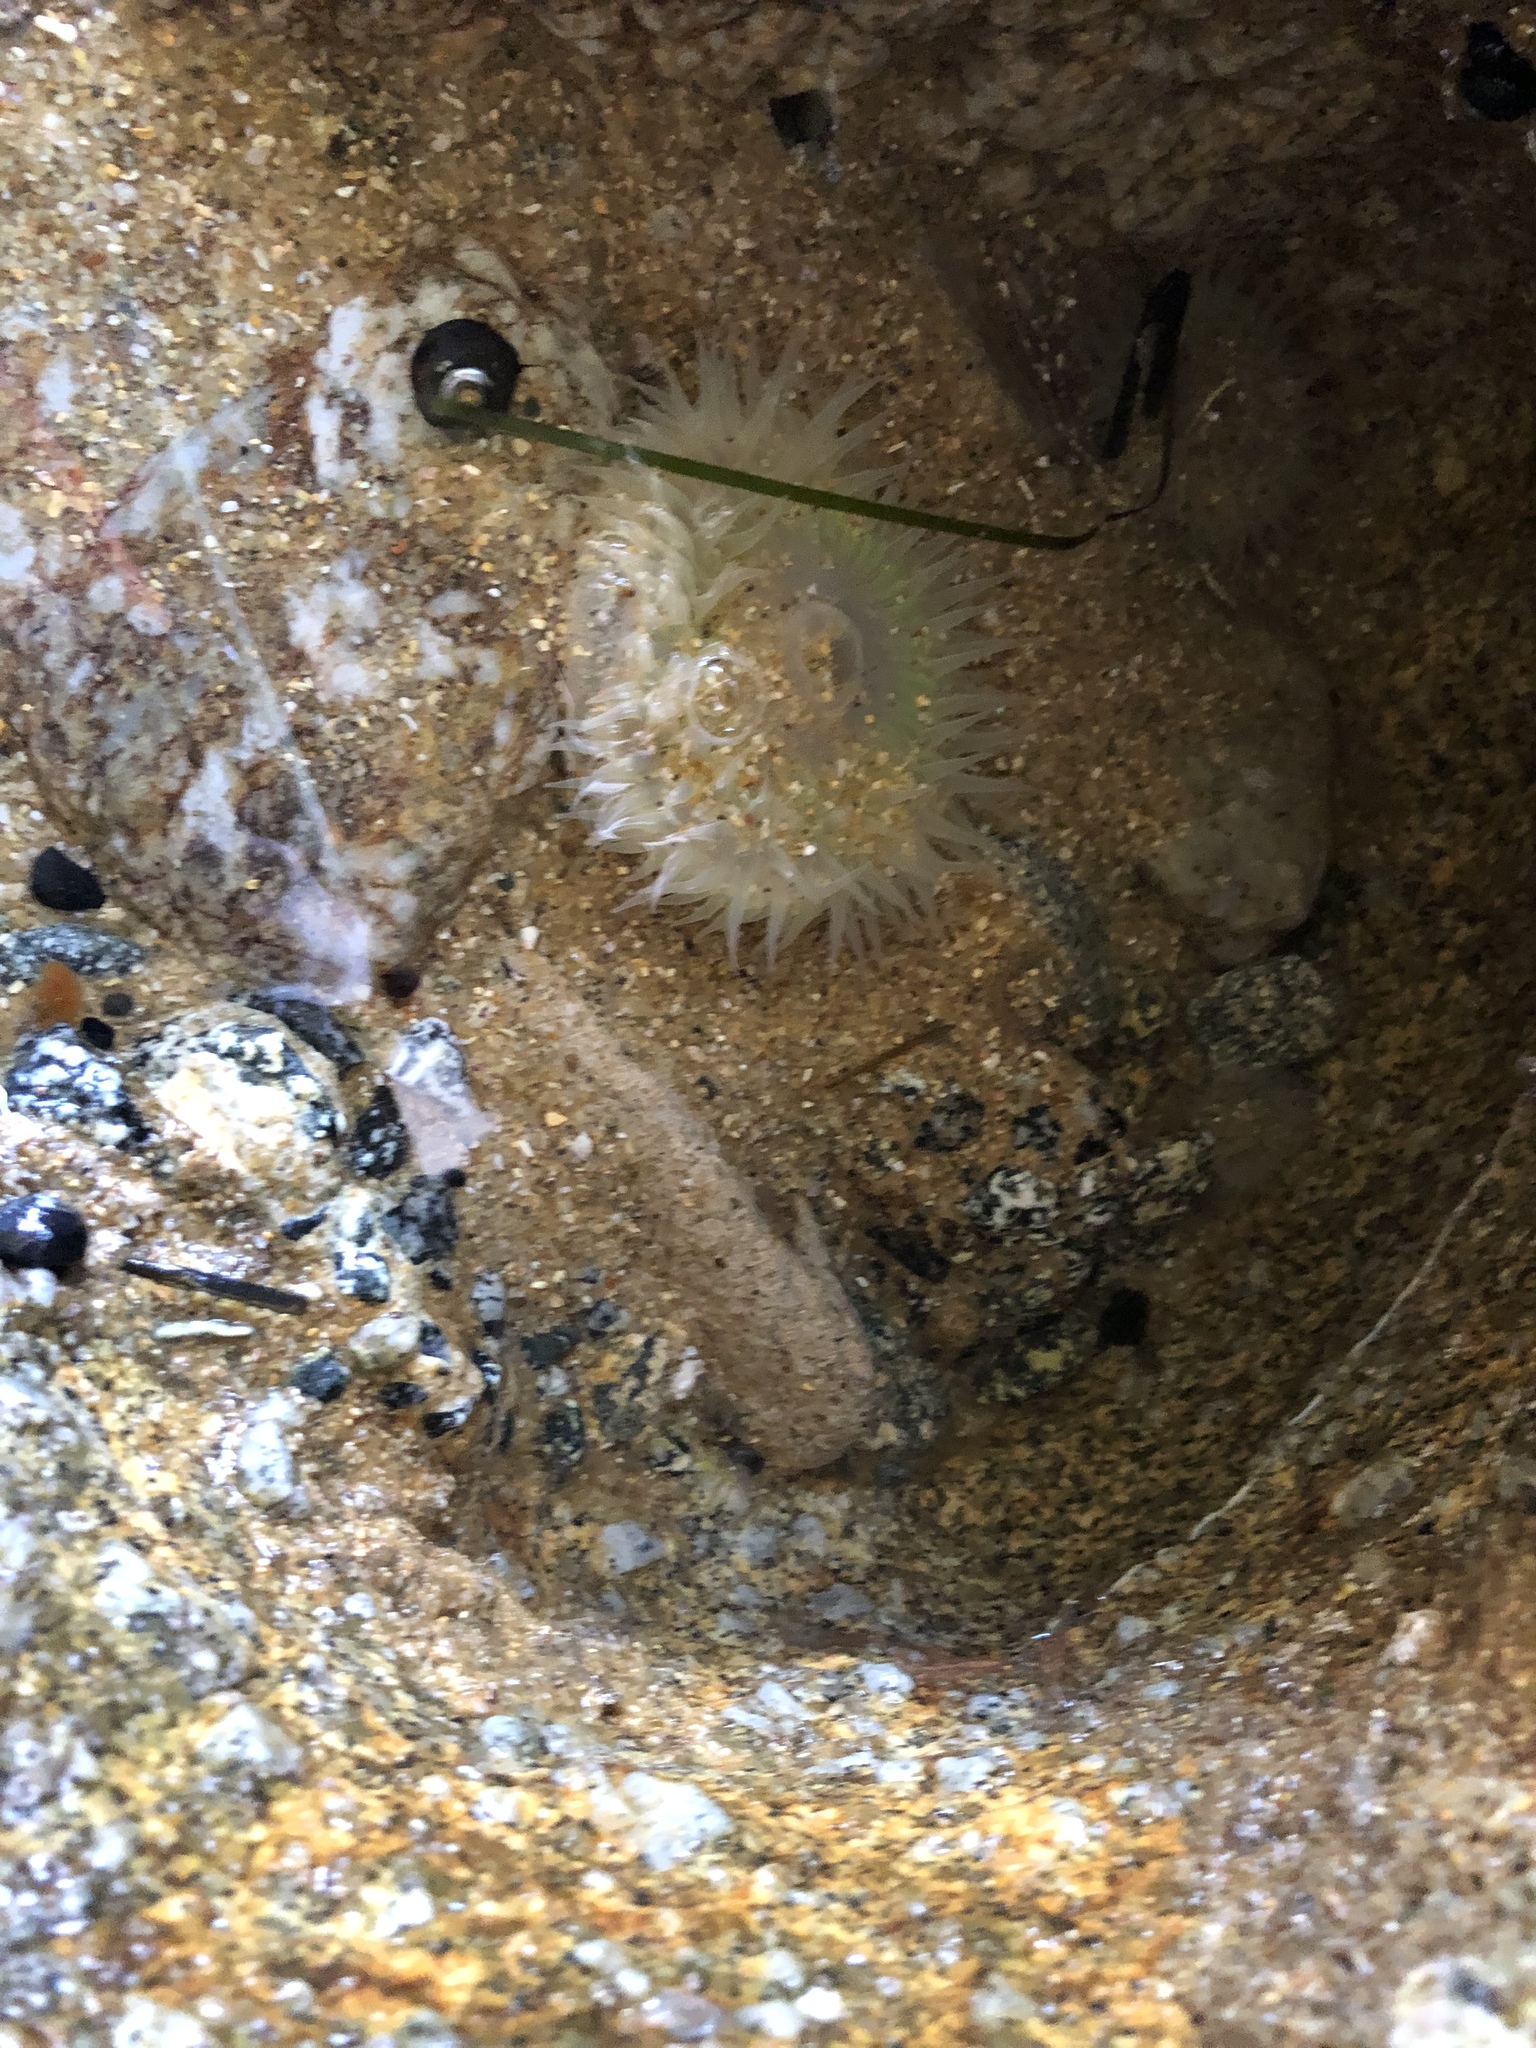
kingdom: Animalia
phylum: Cnidaria
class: Anthozoa
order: Actiniaria
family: Actiniidae
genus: Anthopleura
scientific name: Anthopleura sola
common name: Sun anemone
